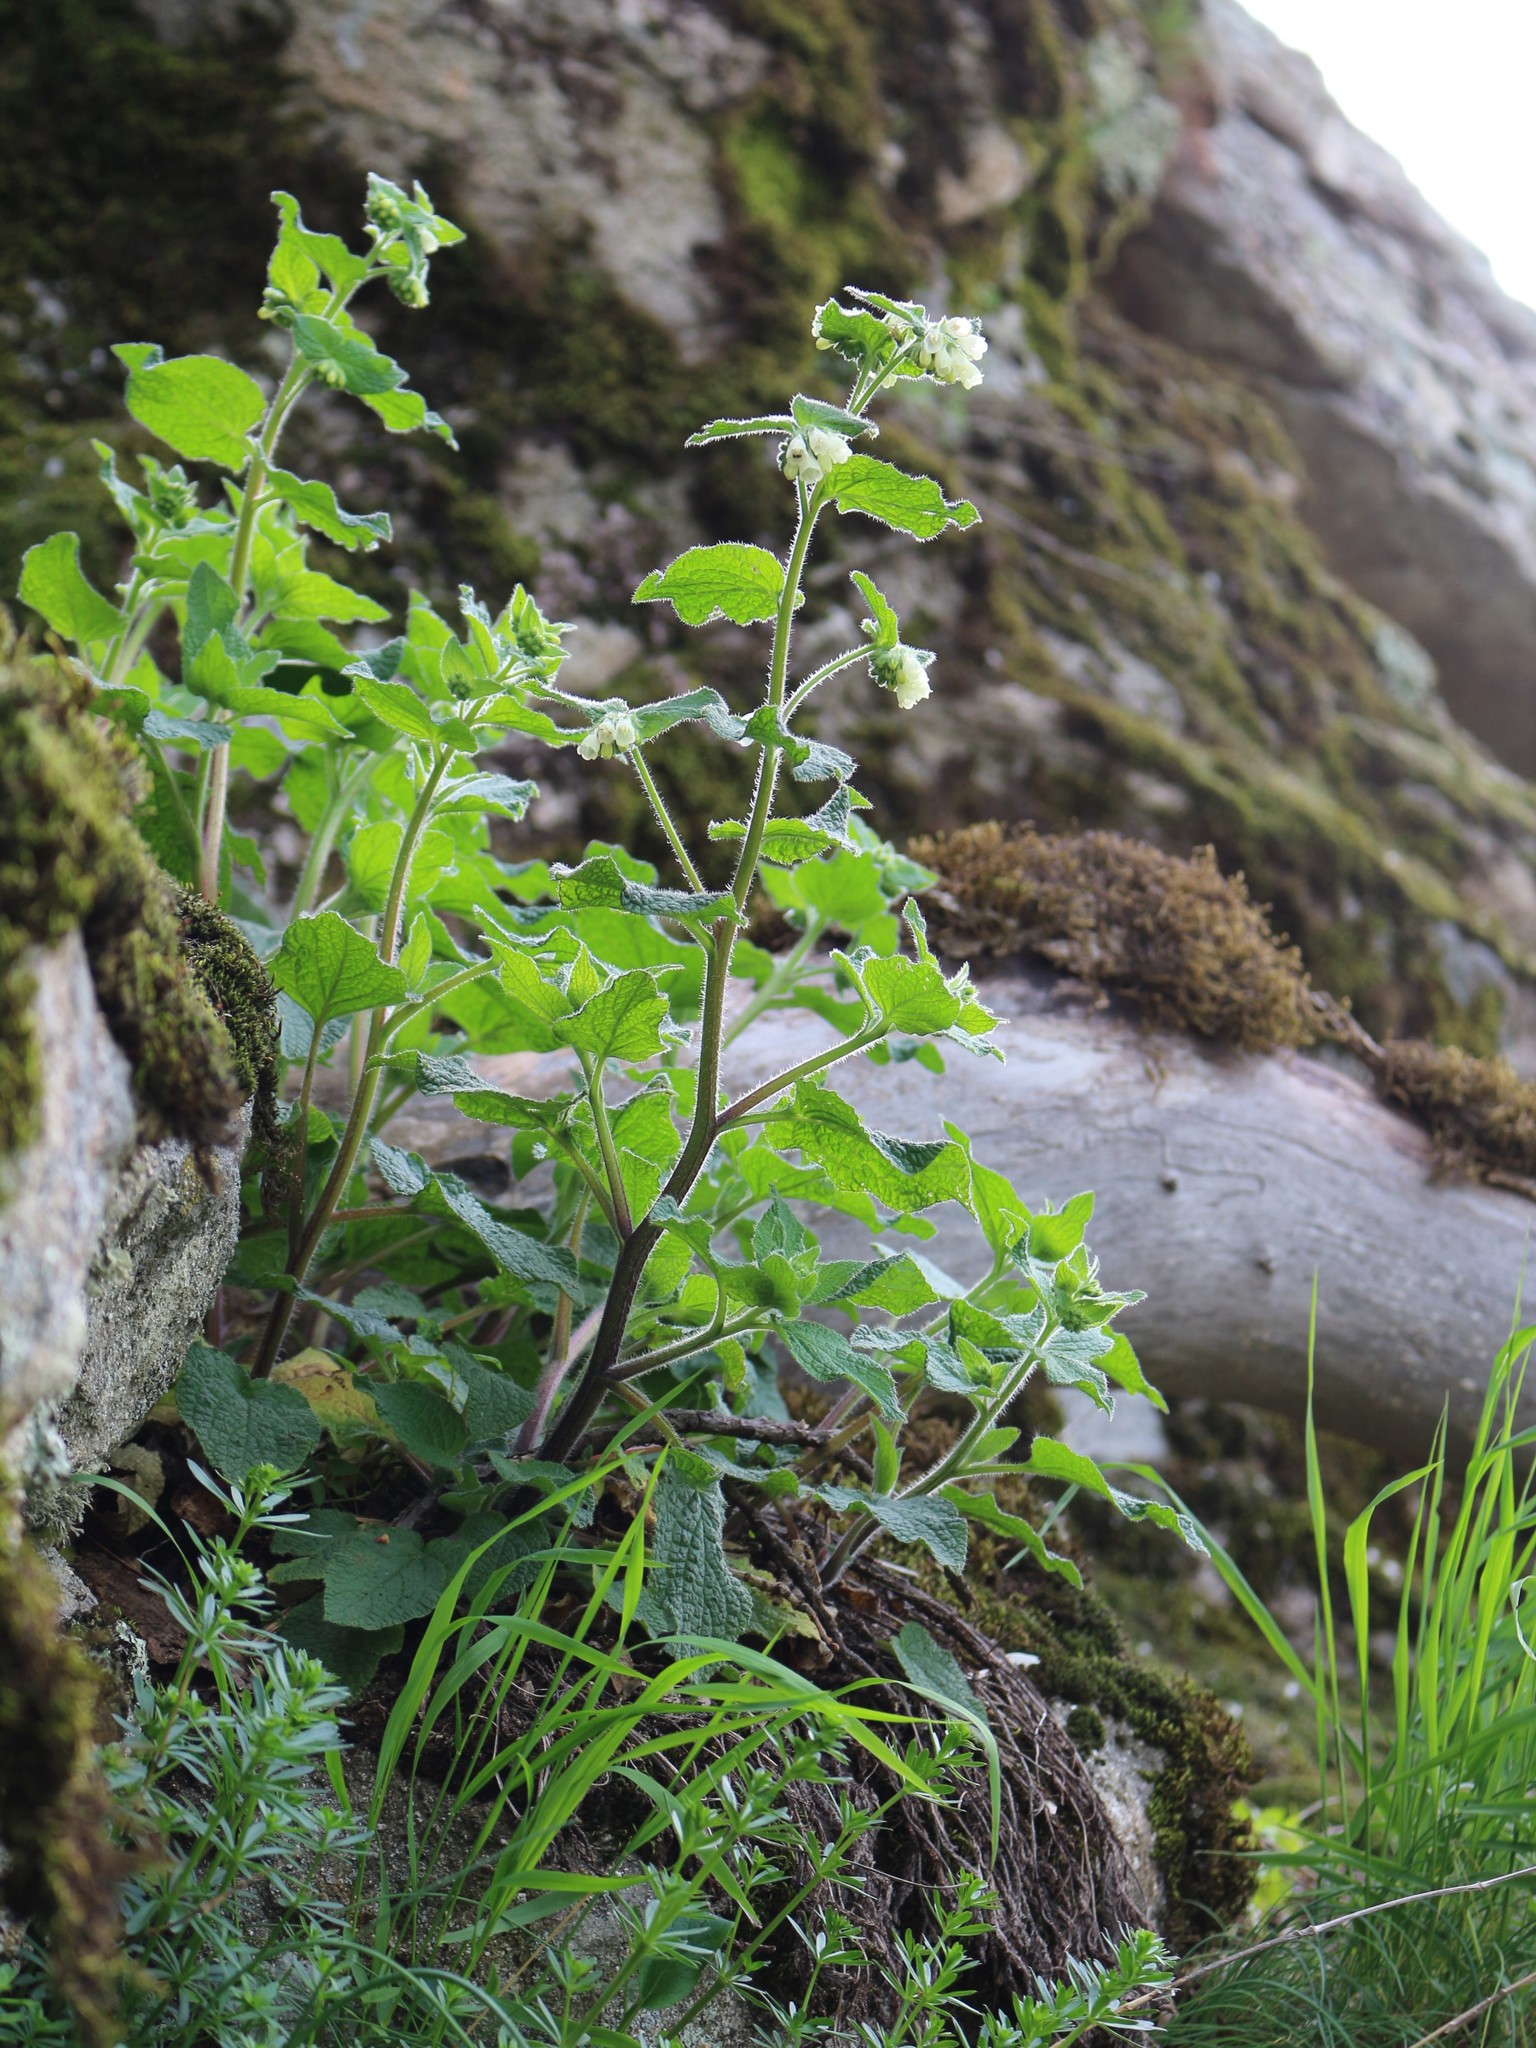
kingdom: Plantae
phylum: Tracheophyta
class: Magnoliopsida
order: Boraginales
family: Boraginaceae
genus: Symphytum
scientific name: Symphytum tauricum
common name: Crimean comfrey
